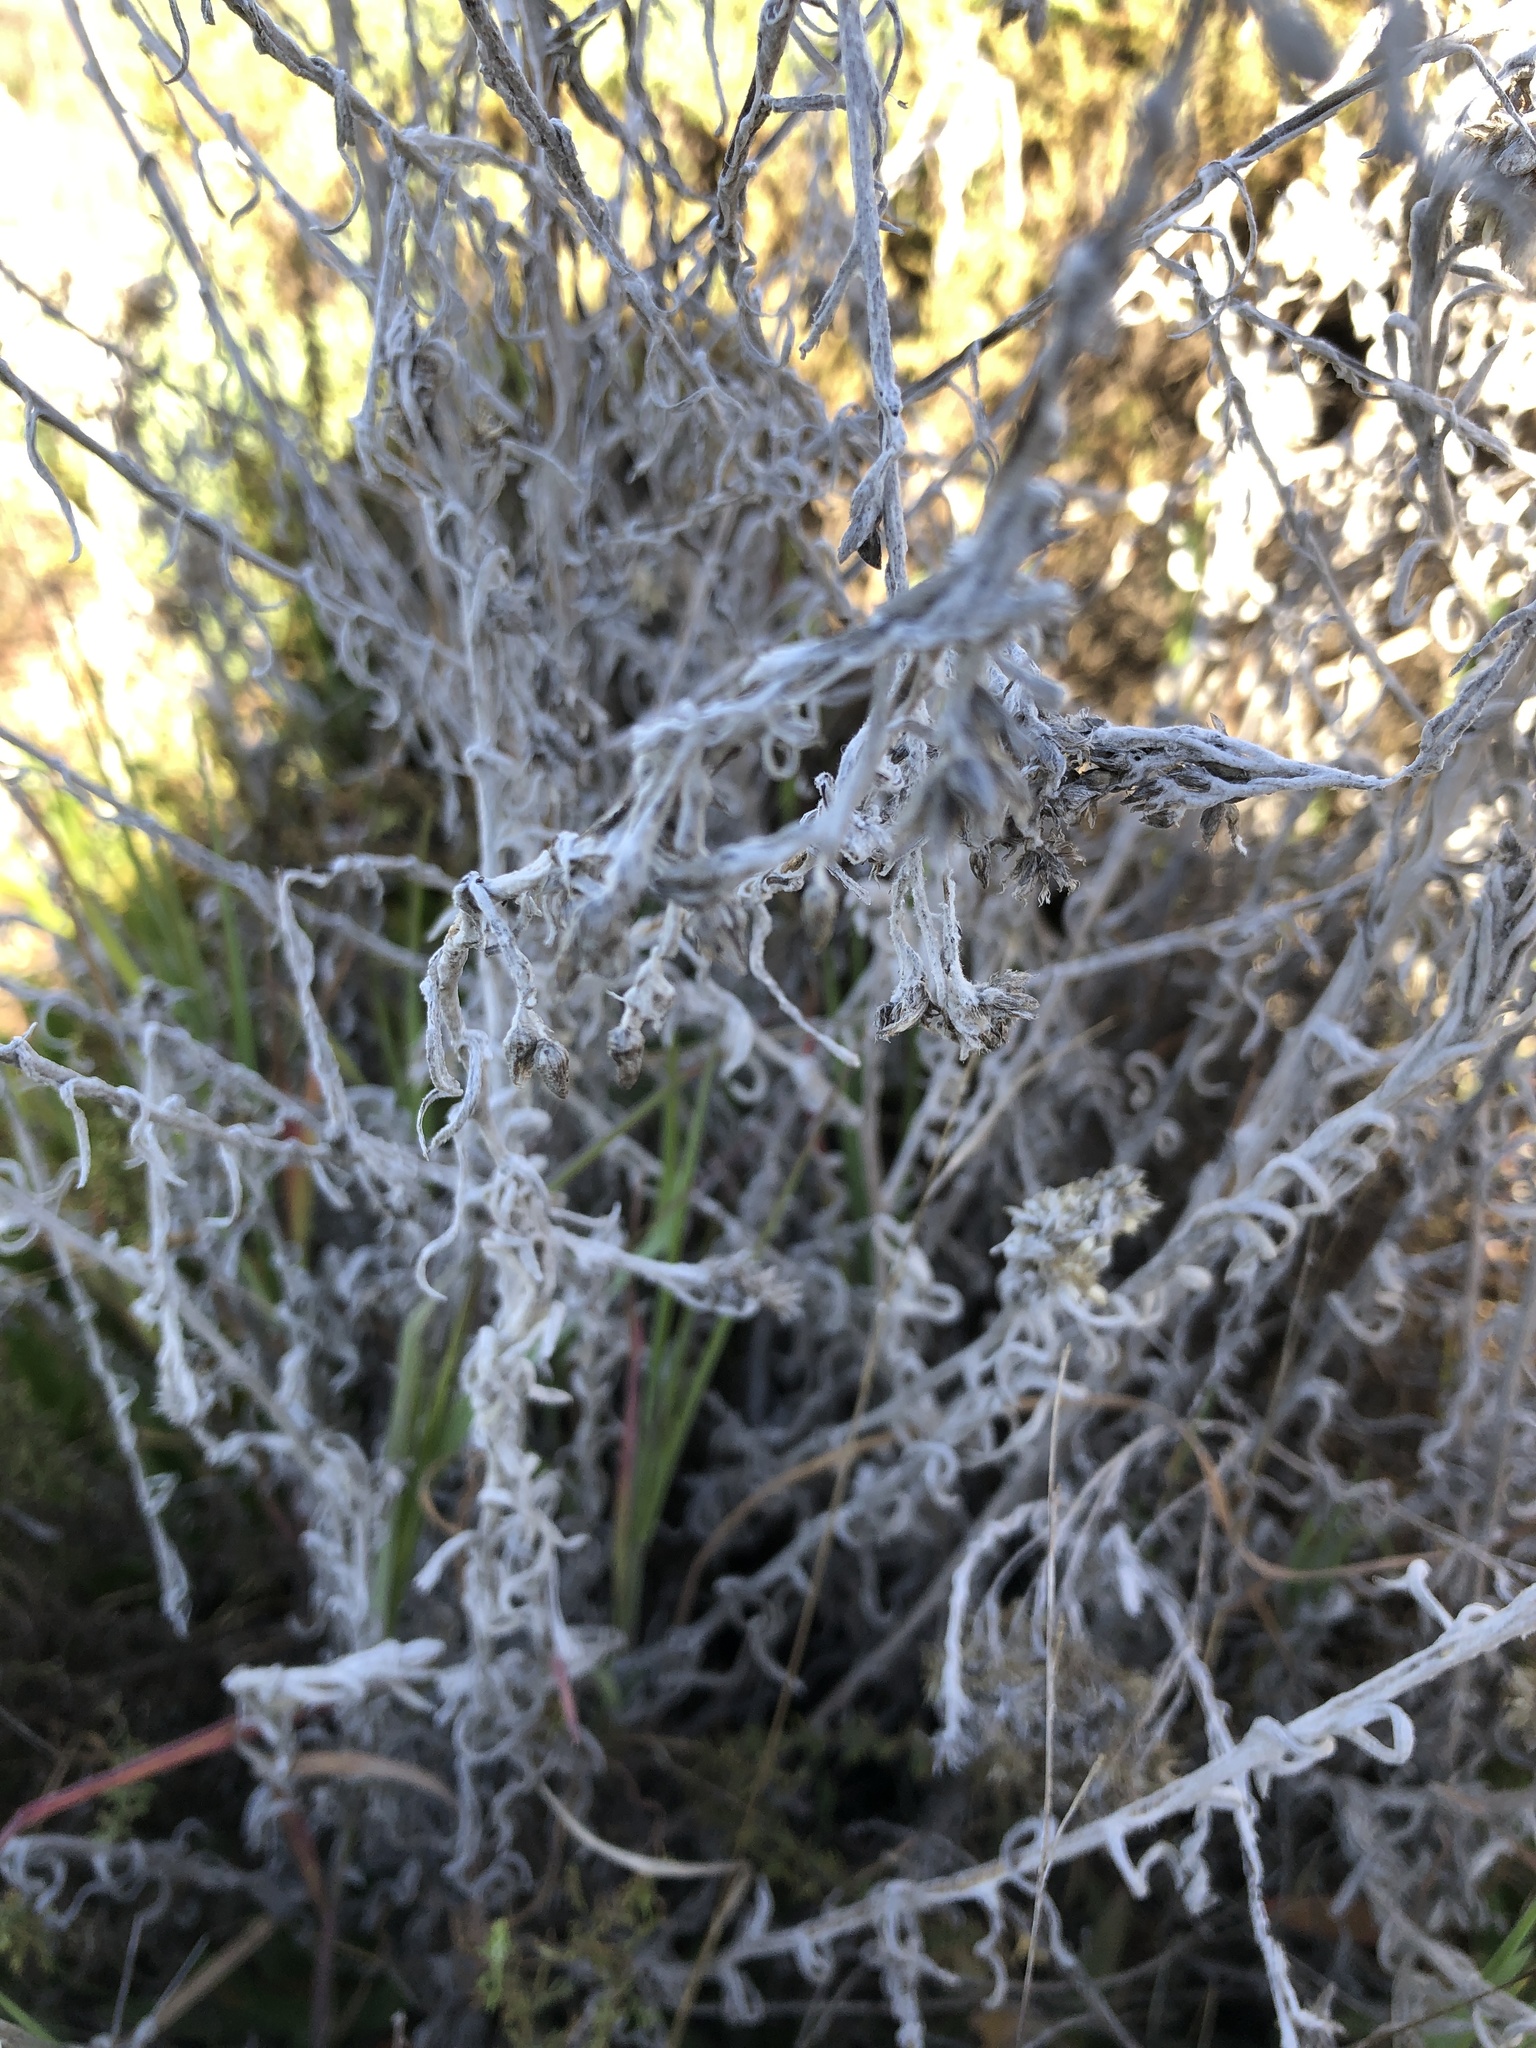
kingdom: Plantae
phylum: Tracheophyta
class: Magnoliopsida
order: Asterales
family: Asteraceae
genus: Artemisia
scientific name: Artemisia pycnocephala
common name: Coastal sagewort
